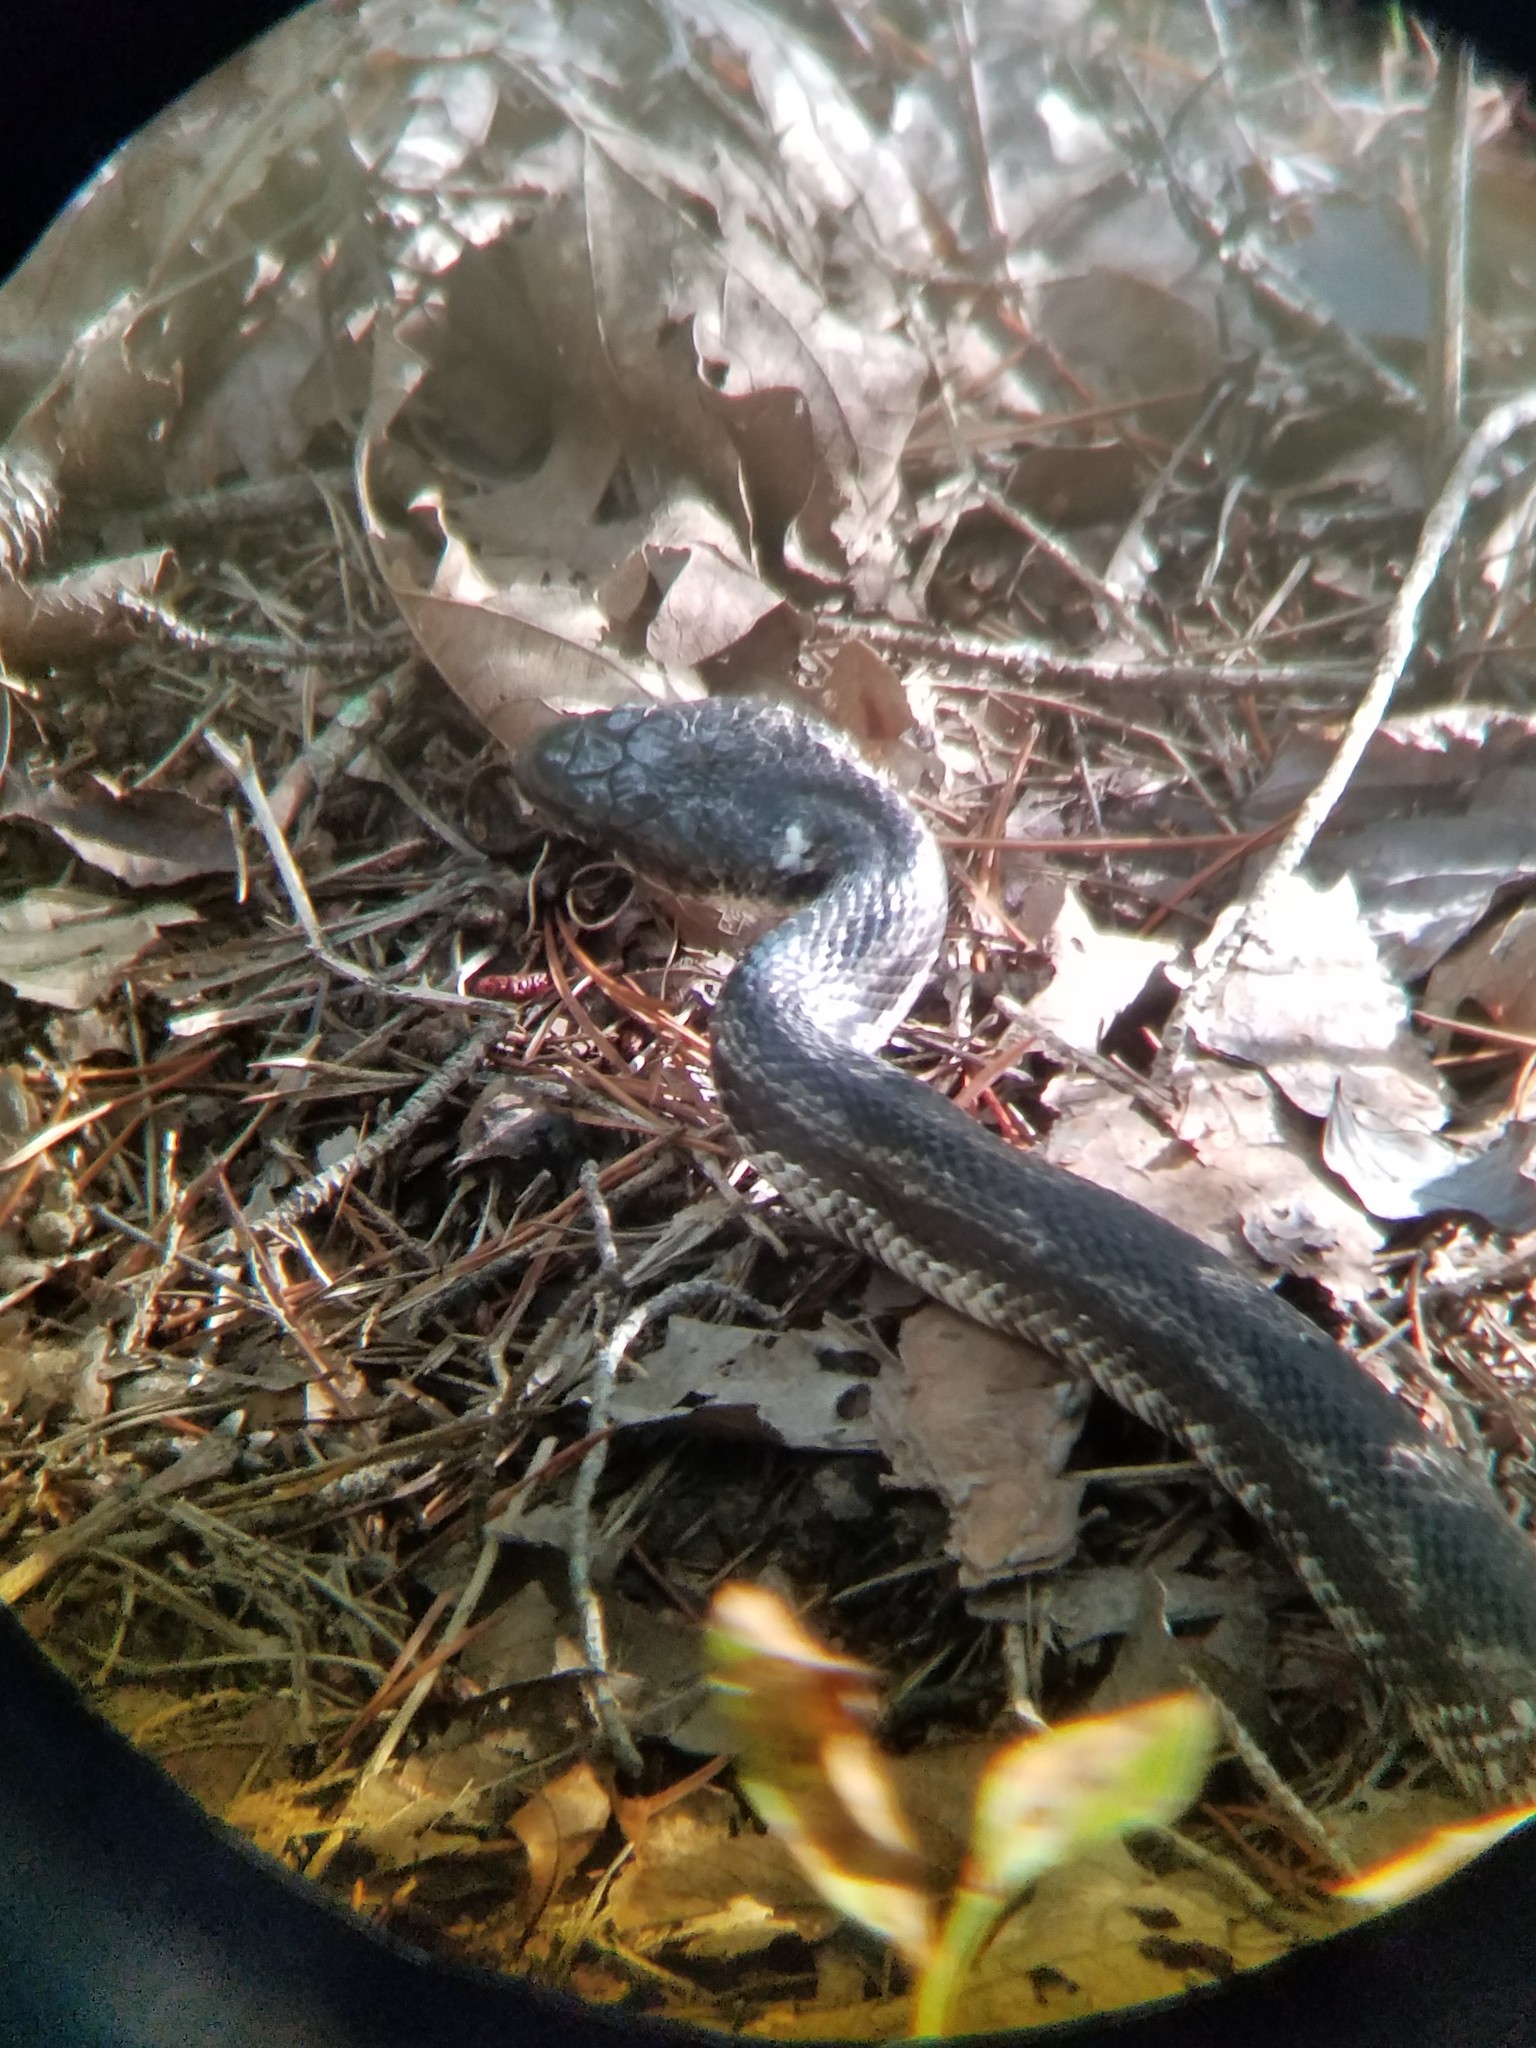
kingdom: Animalia
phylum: Chordata
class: Squamata
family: Colubridae
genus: Pantherophis
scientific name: Pantherophis spiloides
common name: Gray rat snake
